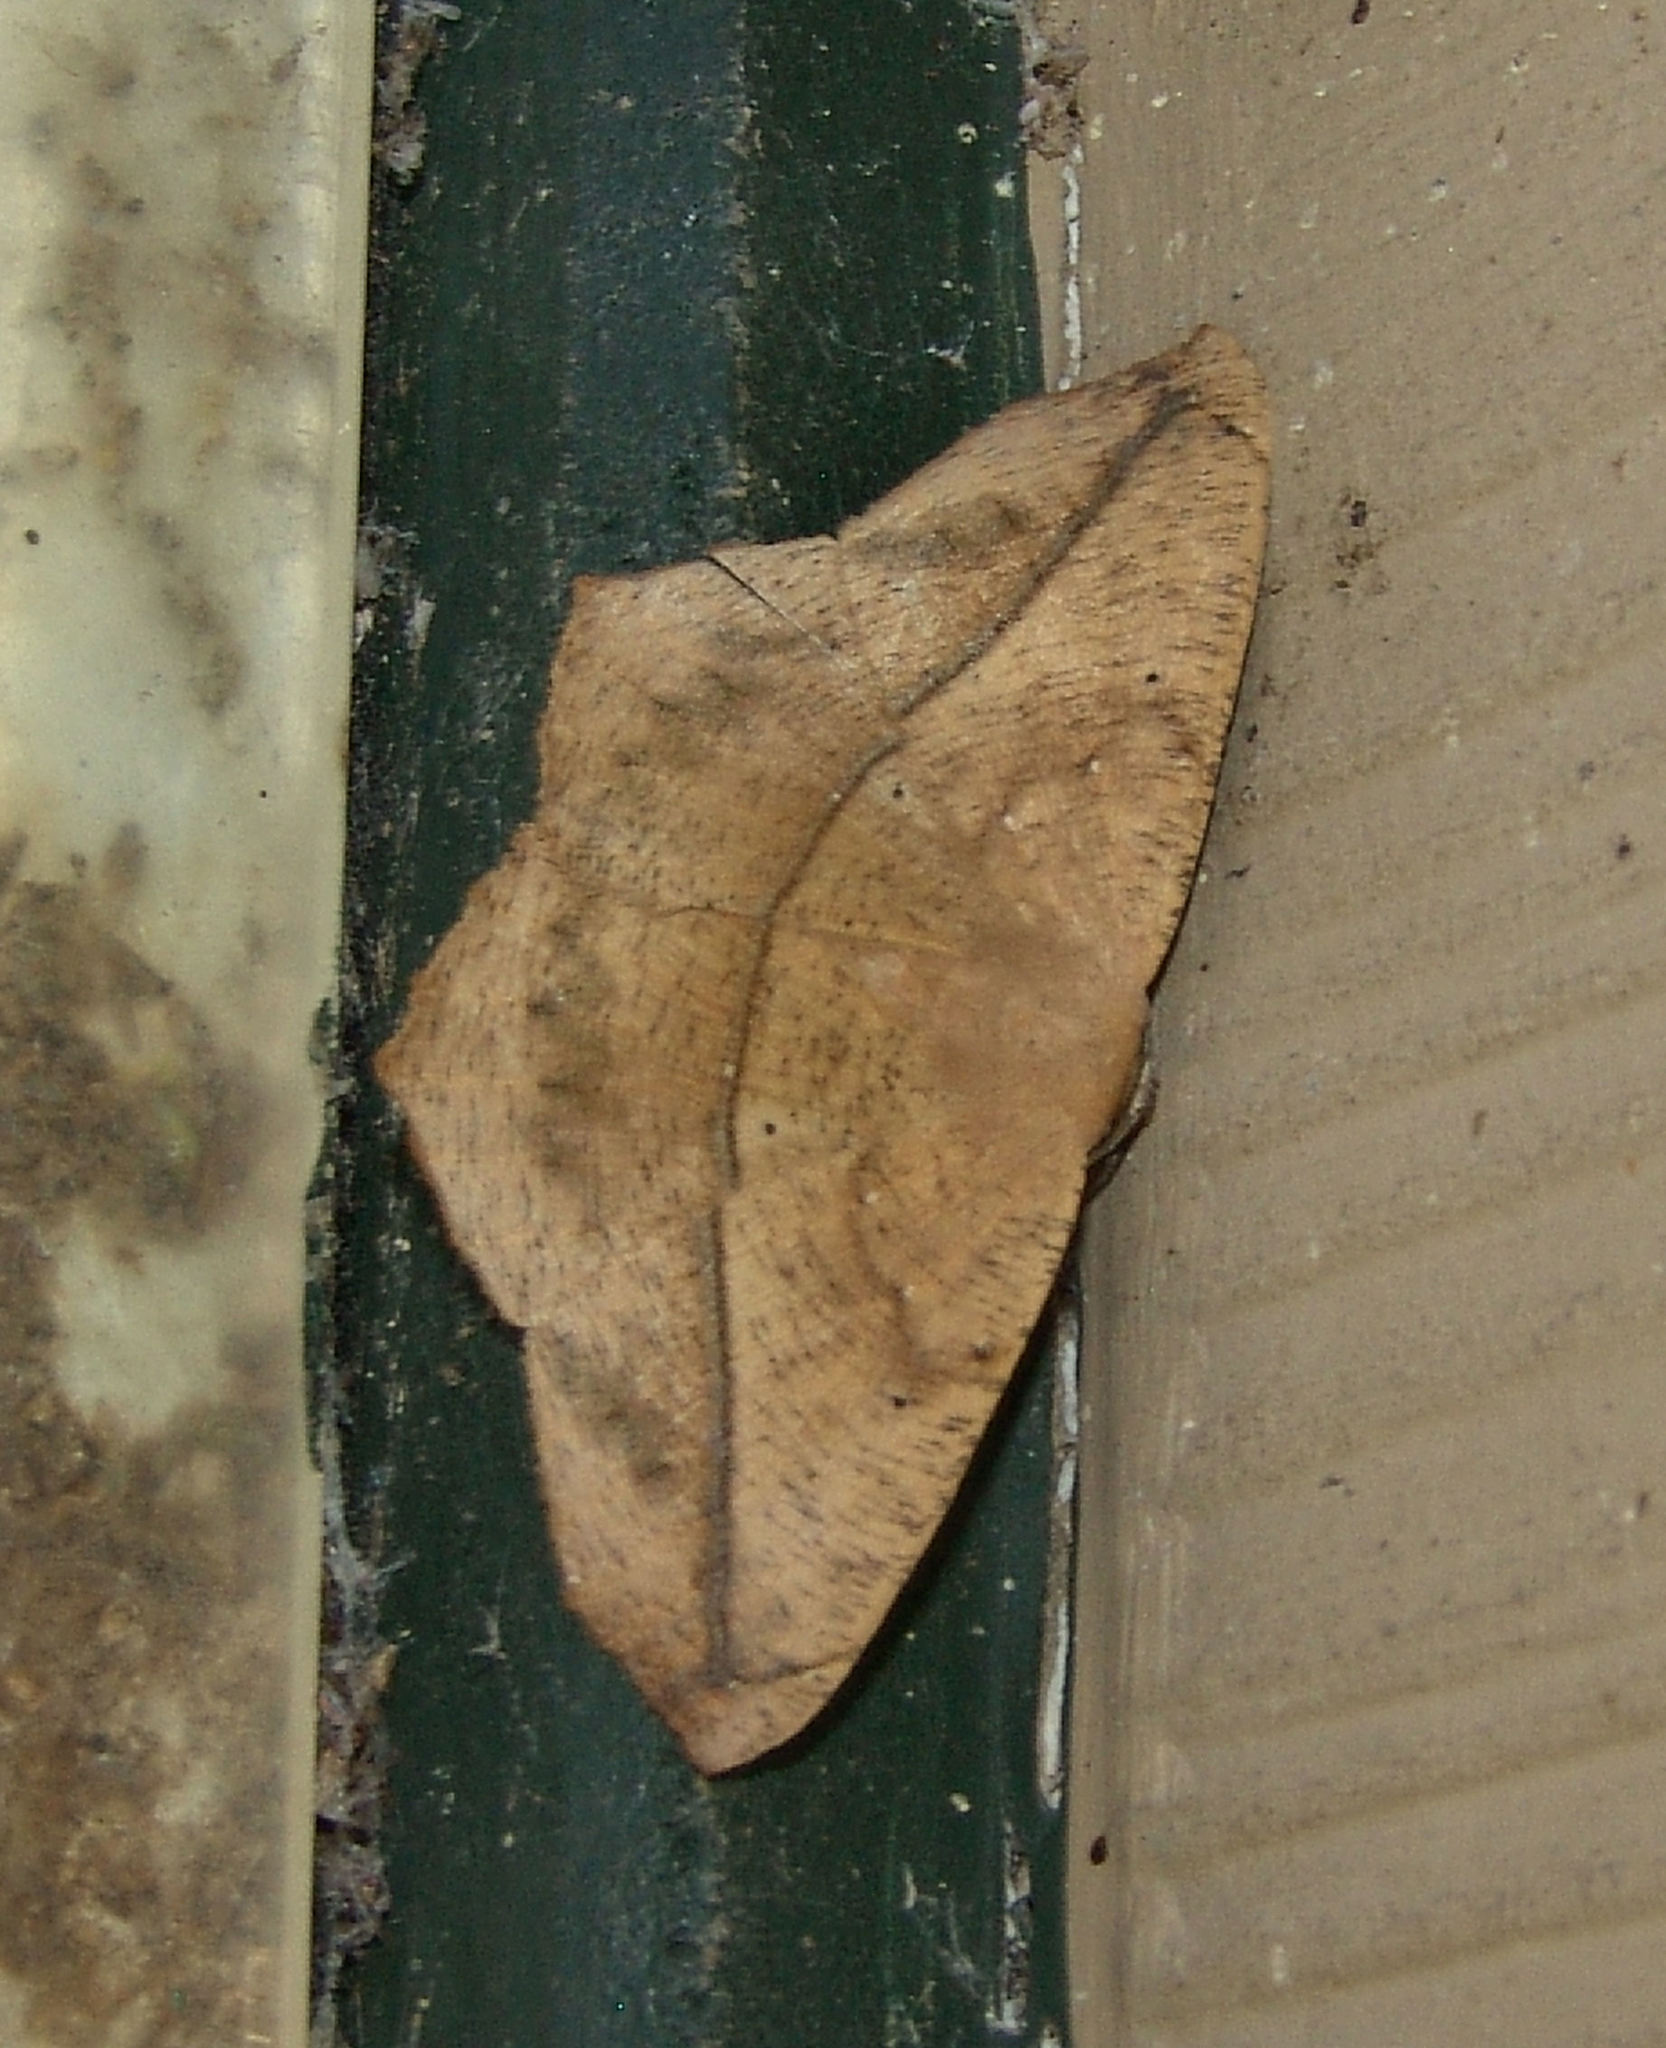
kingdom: Animalia
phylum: Arthropoda
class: Insecta
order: Lepidoptera
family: Geometridae
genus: Prochoerodes
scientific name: Prochoerodes lineola
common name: Large maple spanworm
